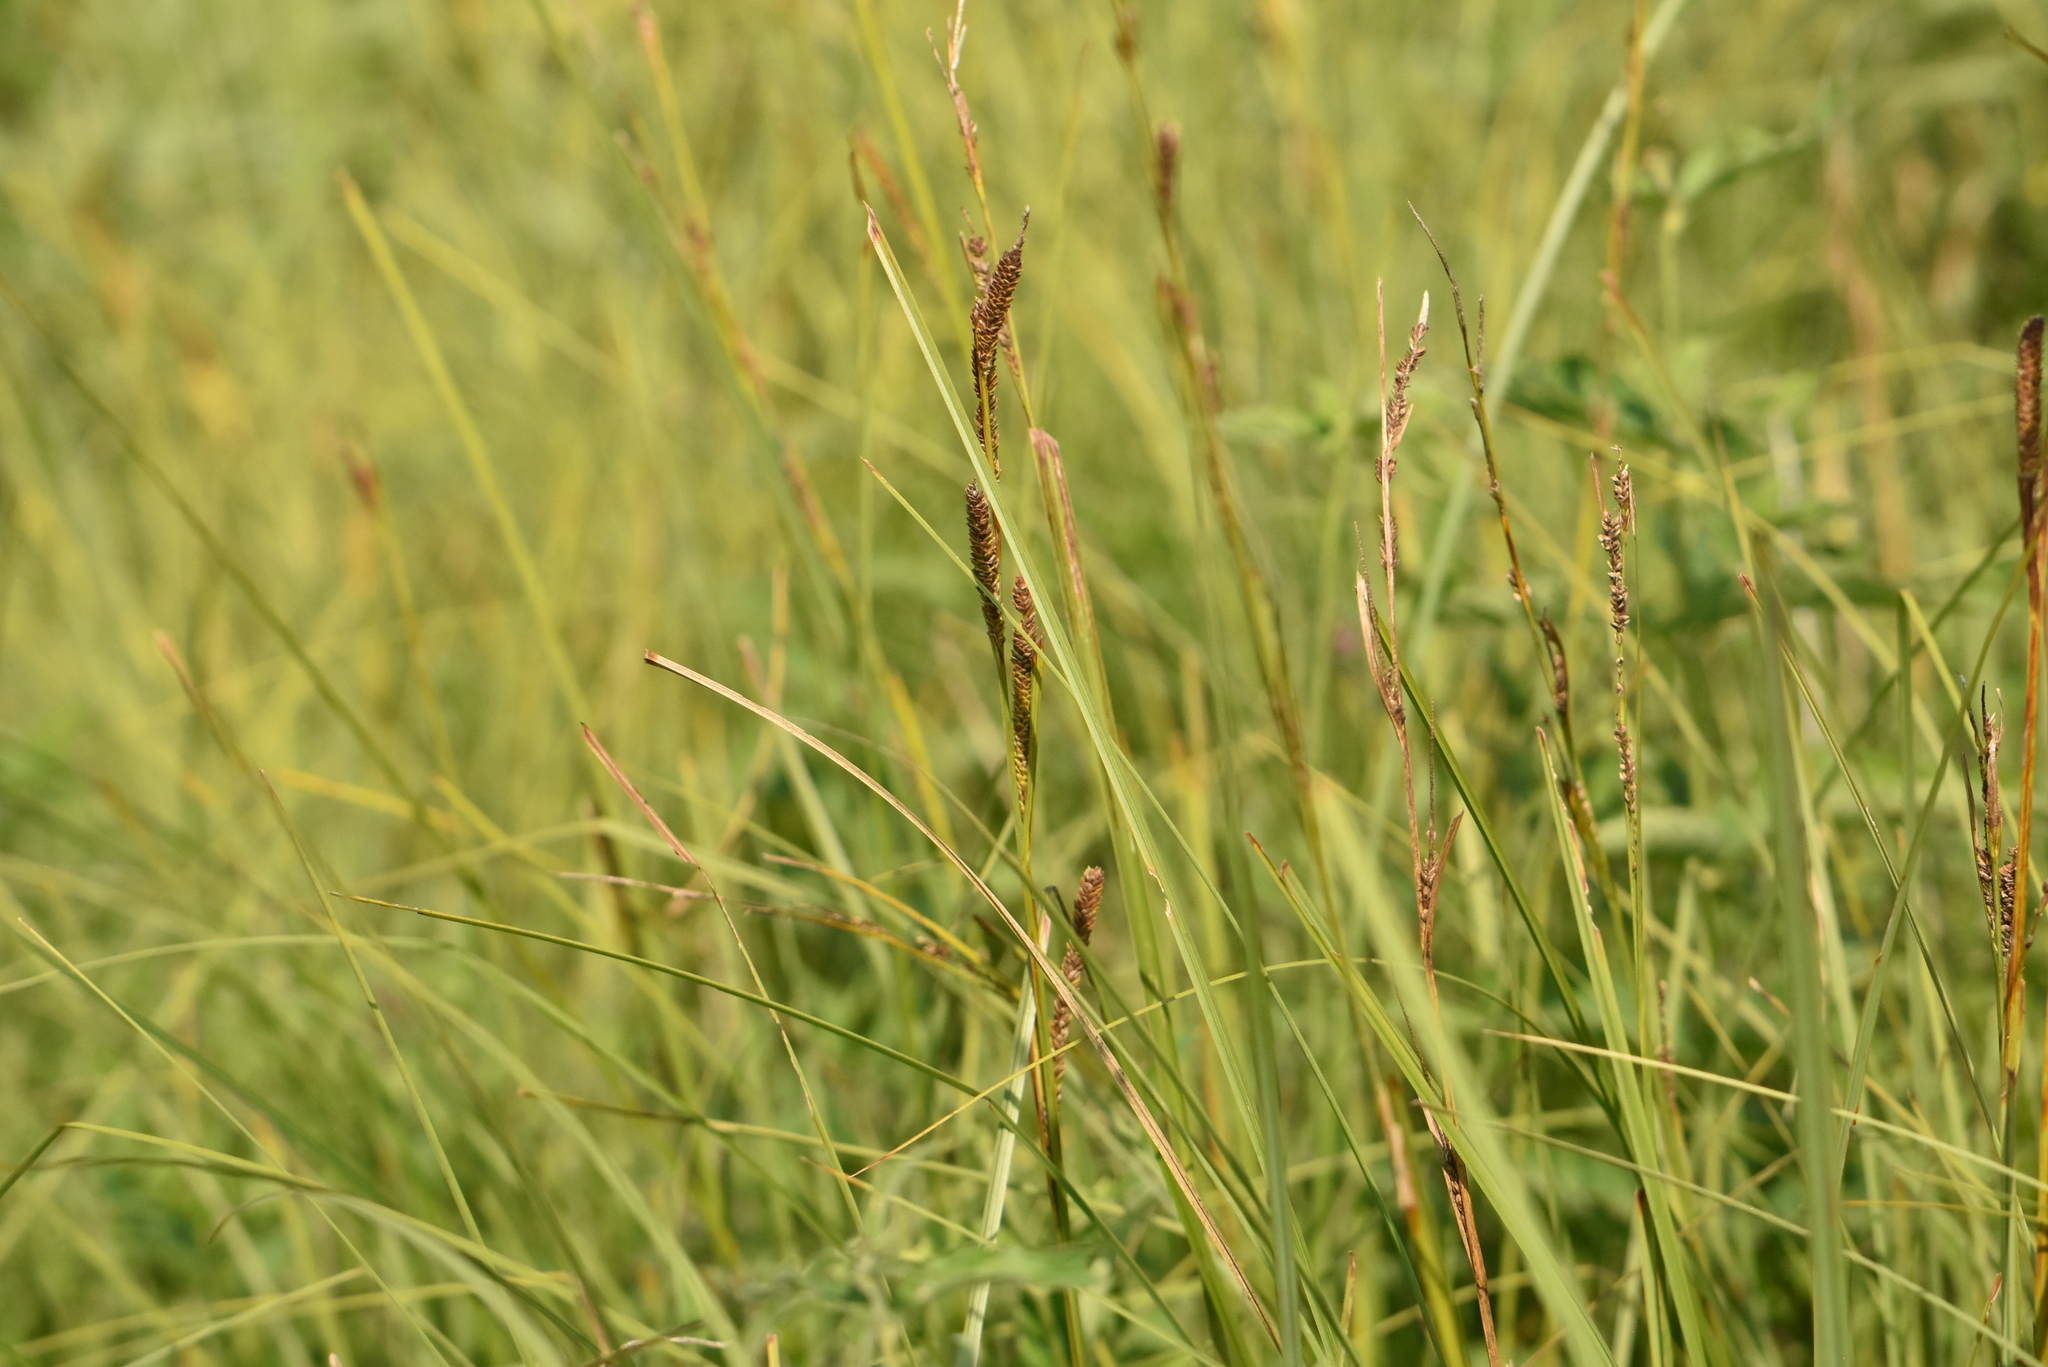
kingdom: Plantae
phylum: Tracheophyta
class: Liliopsida
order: Poales
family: Cyperaceae
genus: Carex
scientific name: Carex nigra
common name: Common sedge
